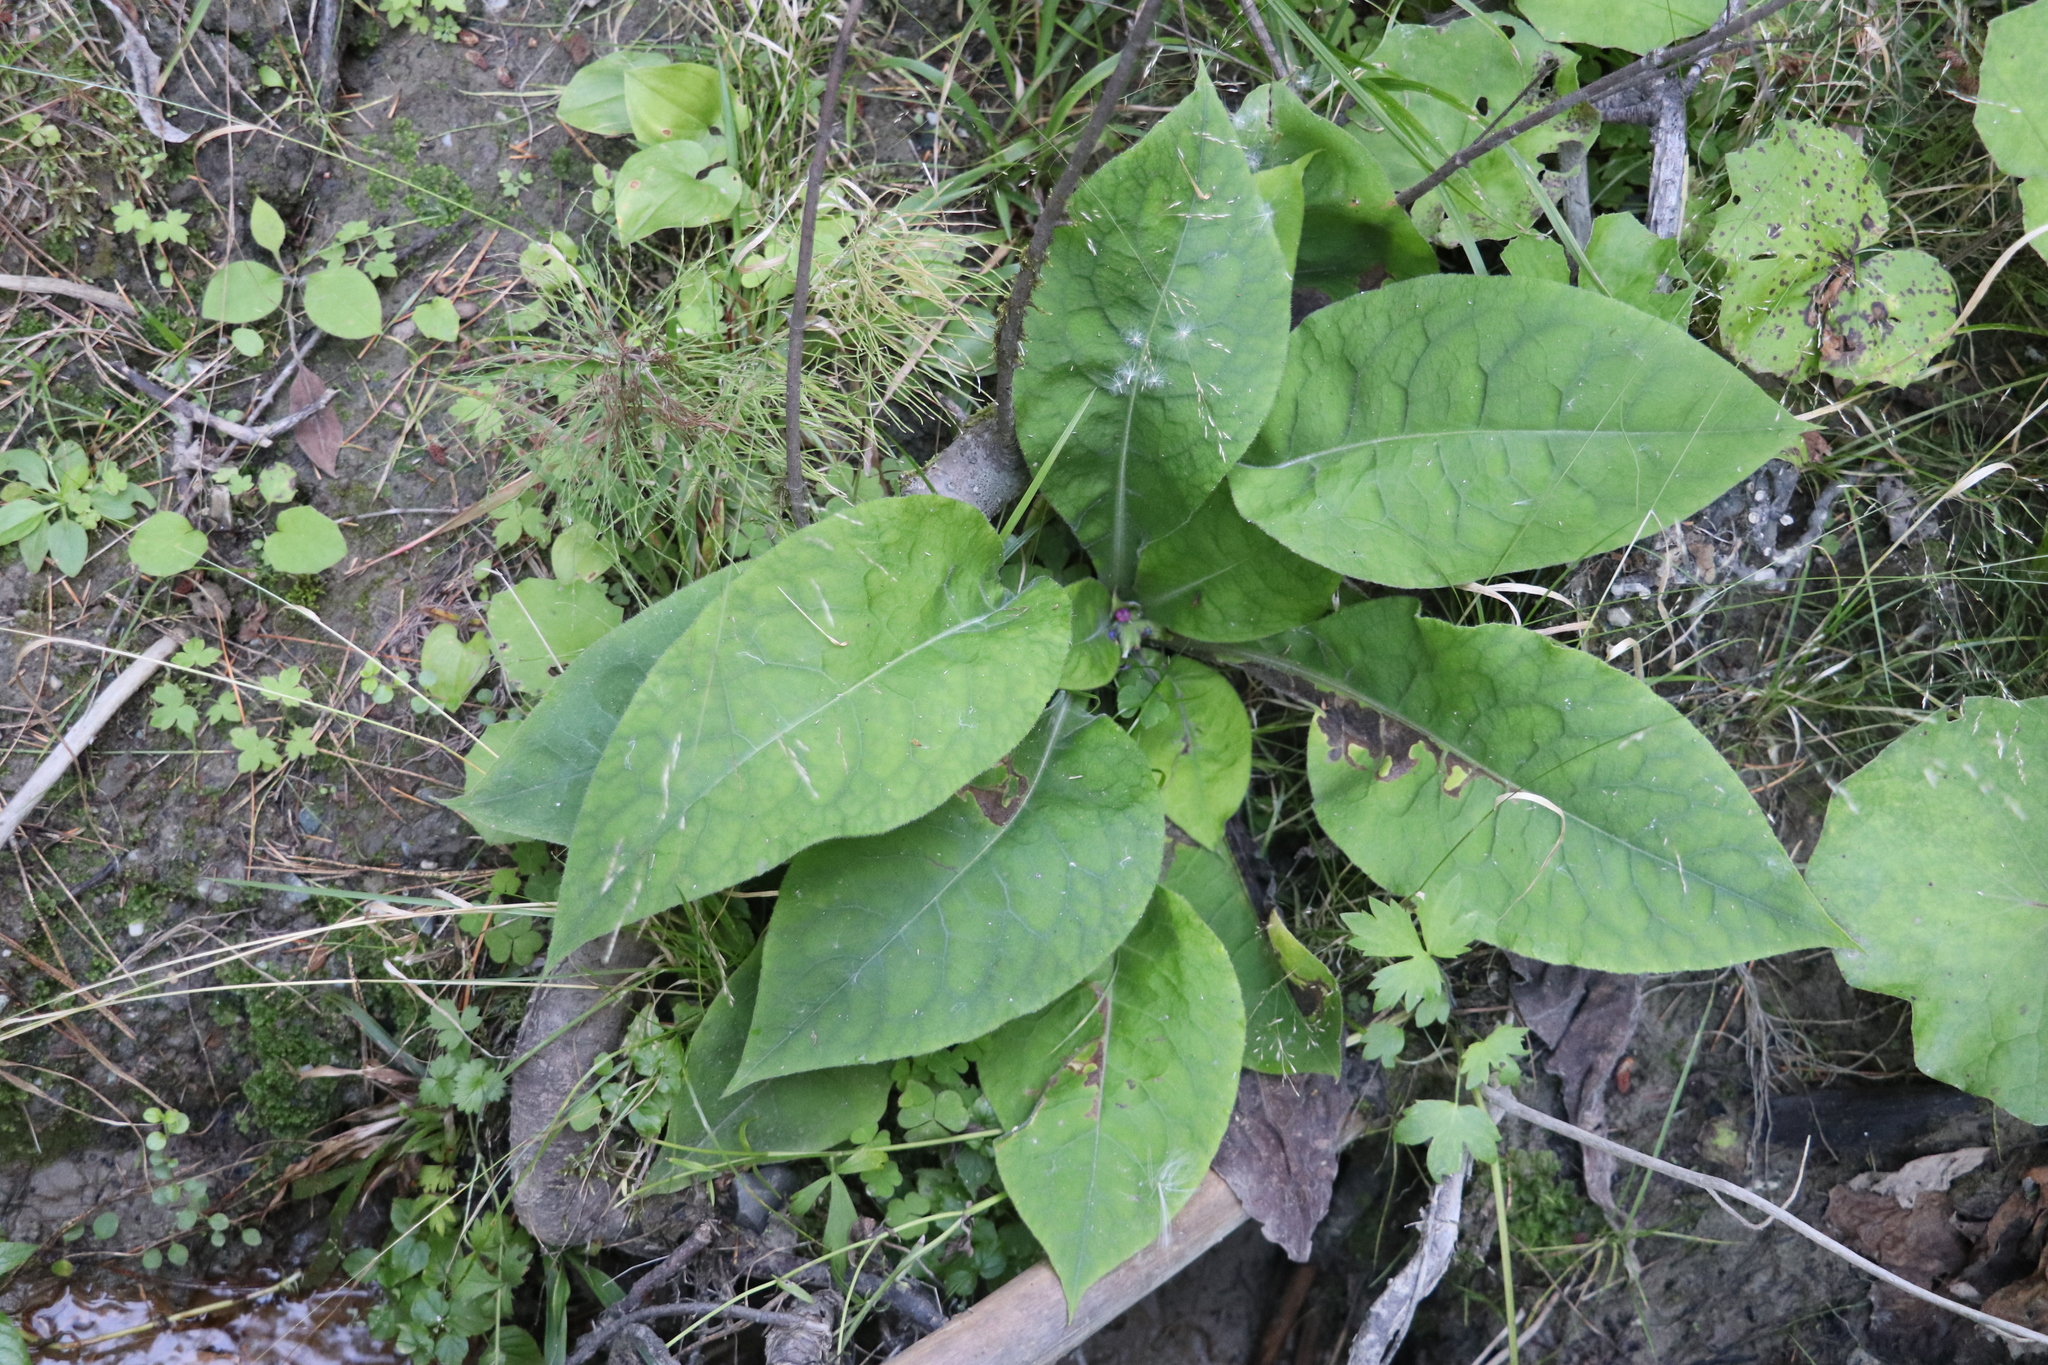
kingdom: Plantae
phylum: Tracheophyta
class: Magnoliopsida
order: Boraginales
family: Boraginaceae
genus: Pulmonaria
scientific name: Pulmonaria mollis
